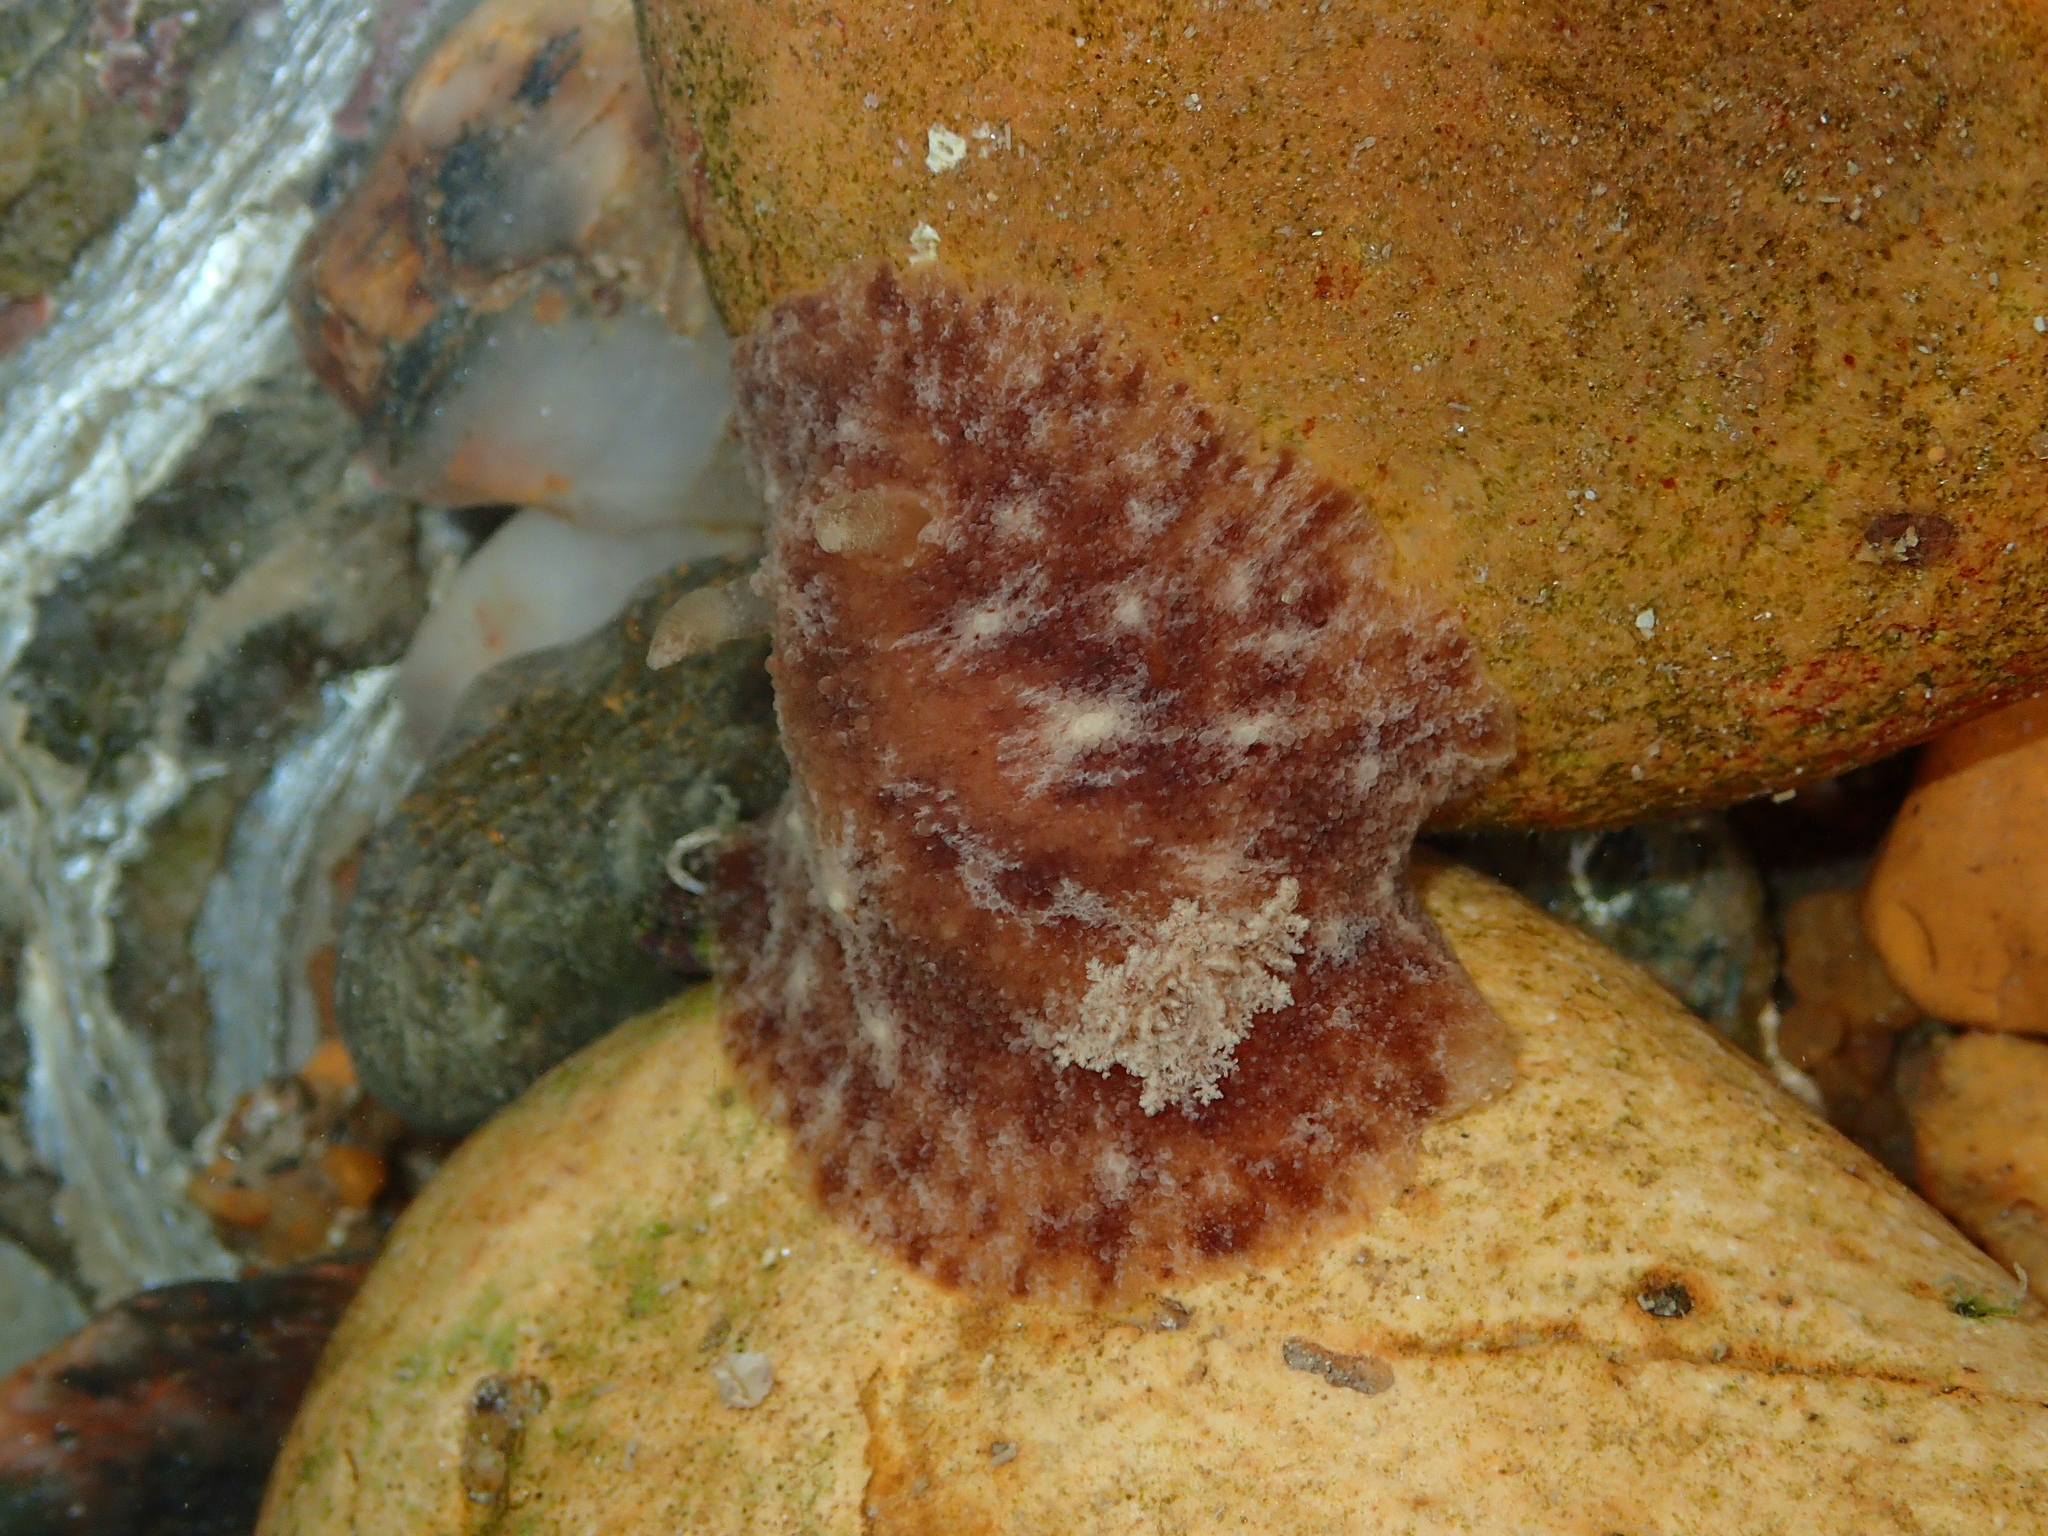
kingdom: Animalia
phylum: Mollusca
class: Gastropoda
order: Nudibranchia
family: Discodorididae
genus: Geitodoris
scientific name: Geitodoris planata
